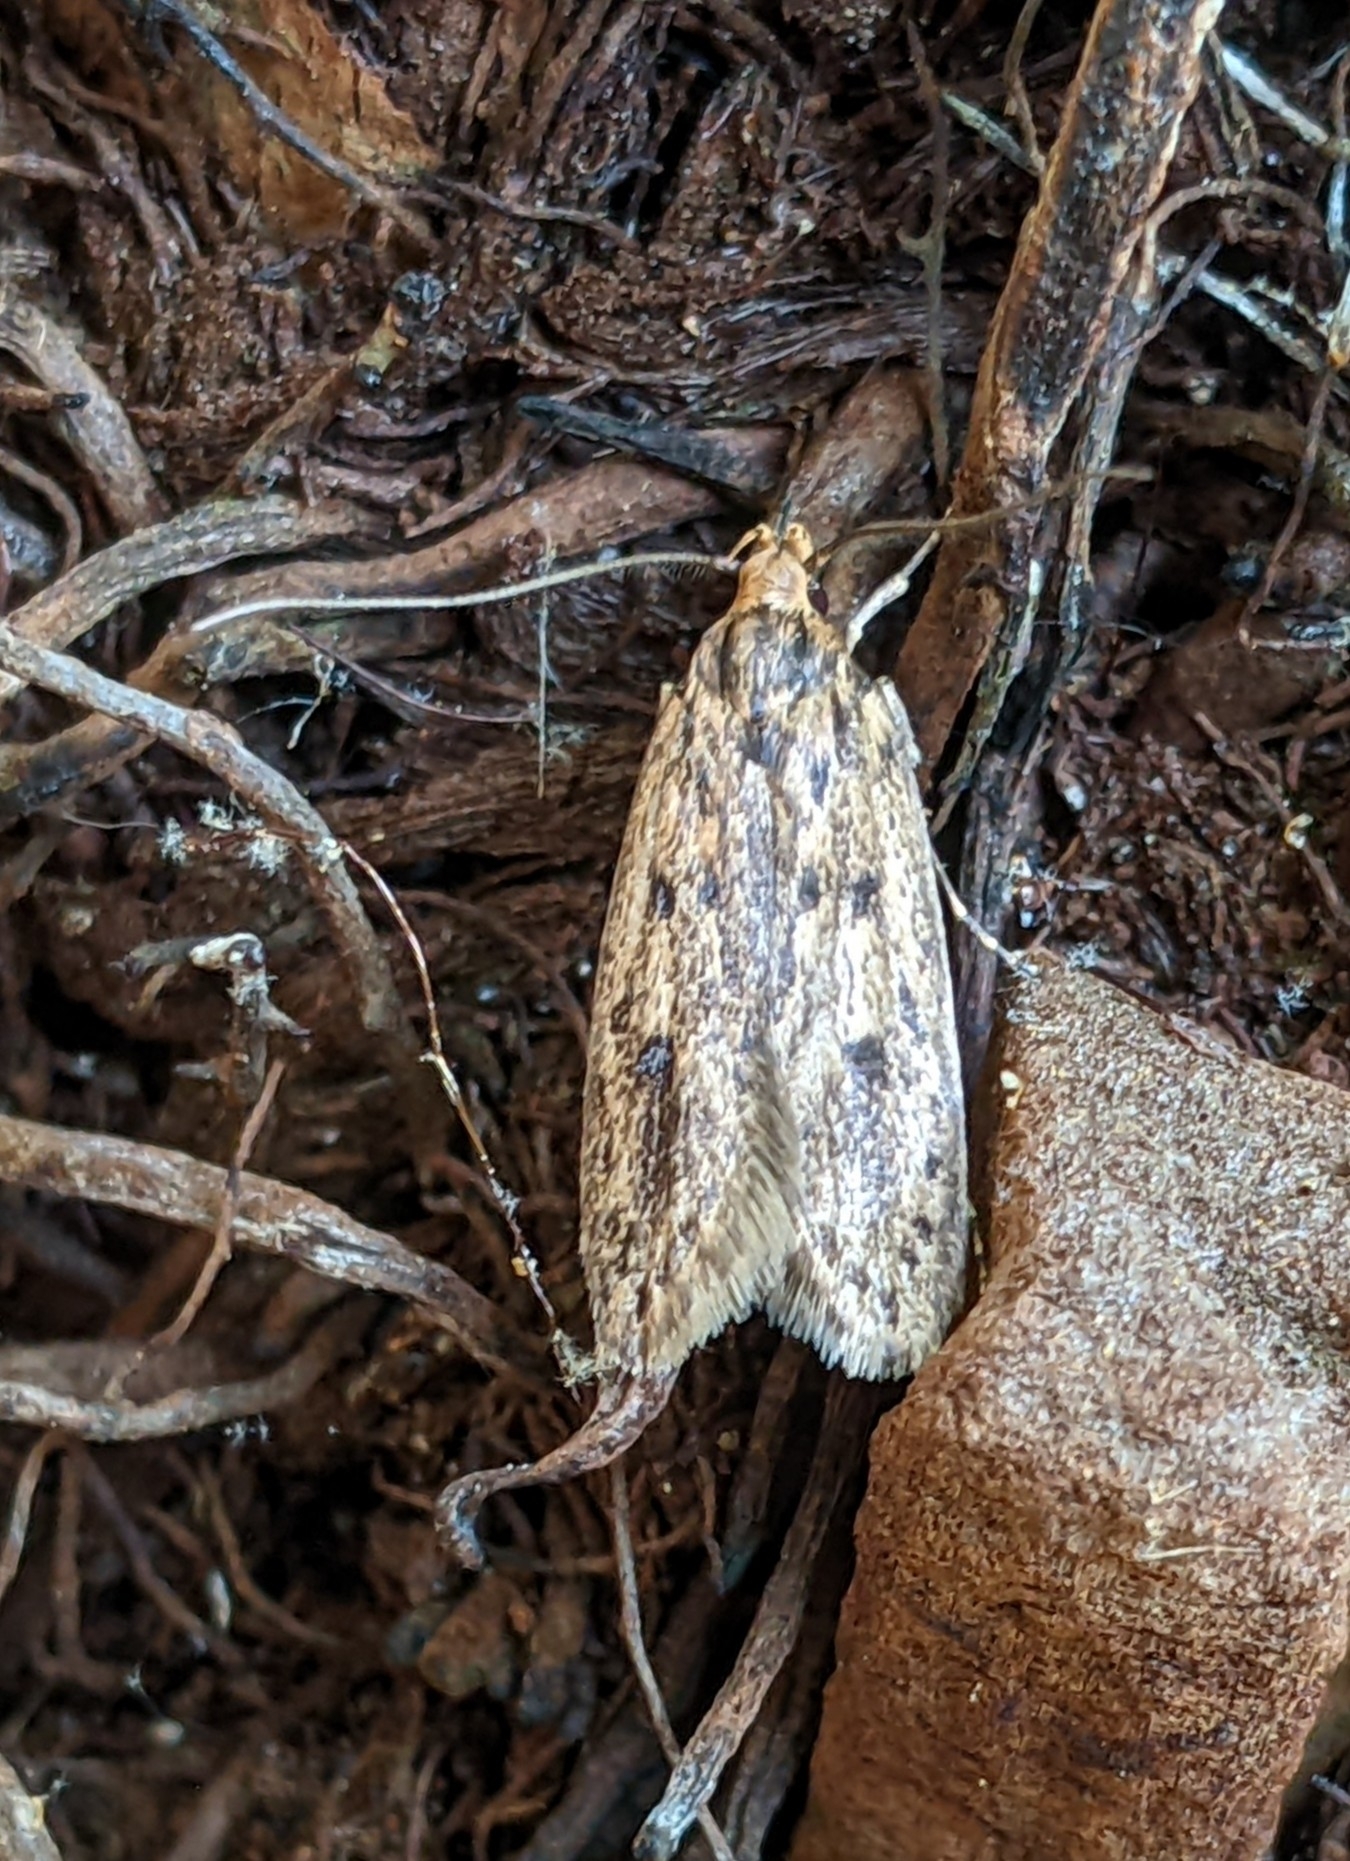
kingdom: Animalia
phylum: Arthropoda
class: Insecta
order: Lepidoptera
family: Oecophoridae
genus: Hofmannophila
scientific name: Hofmannophila pseudospretella
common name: Brown house moth
